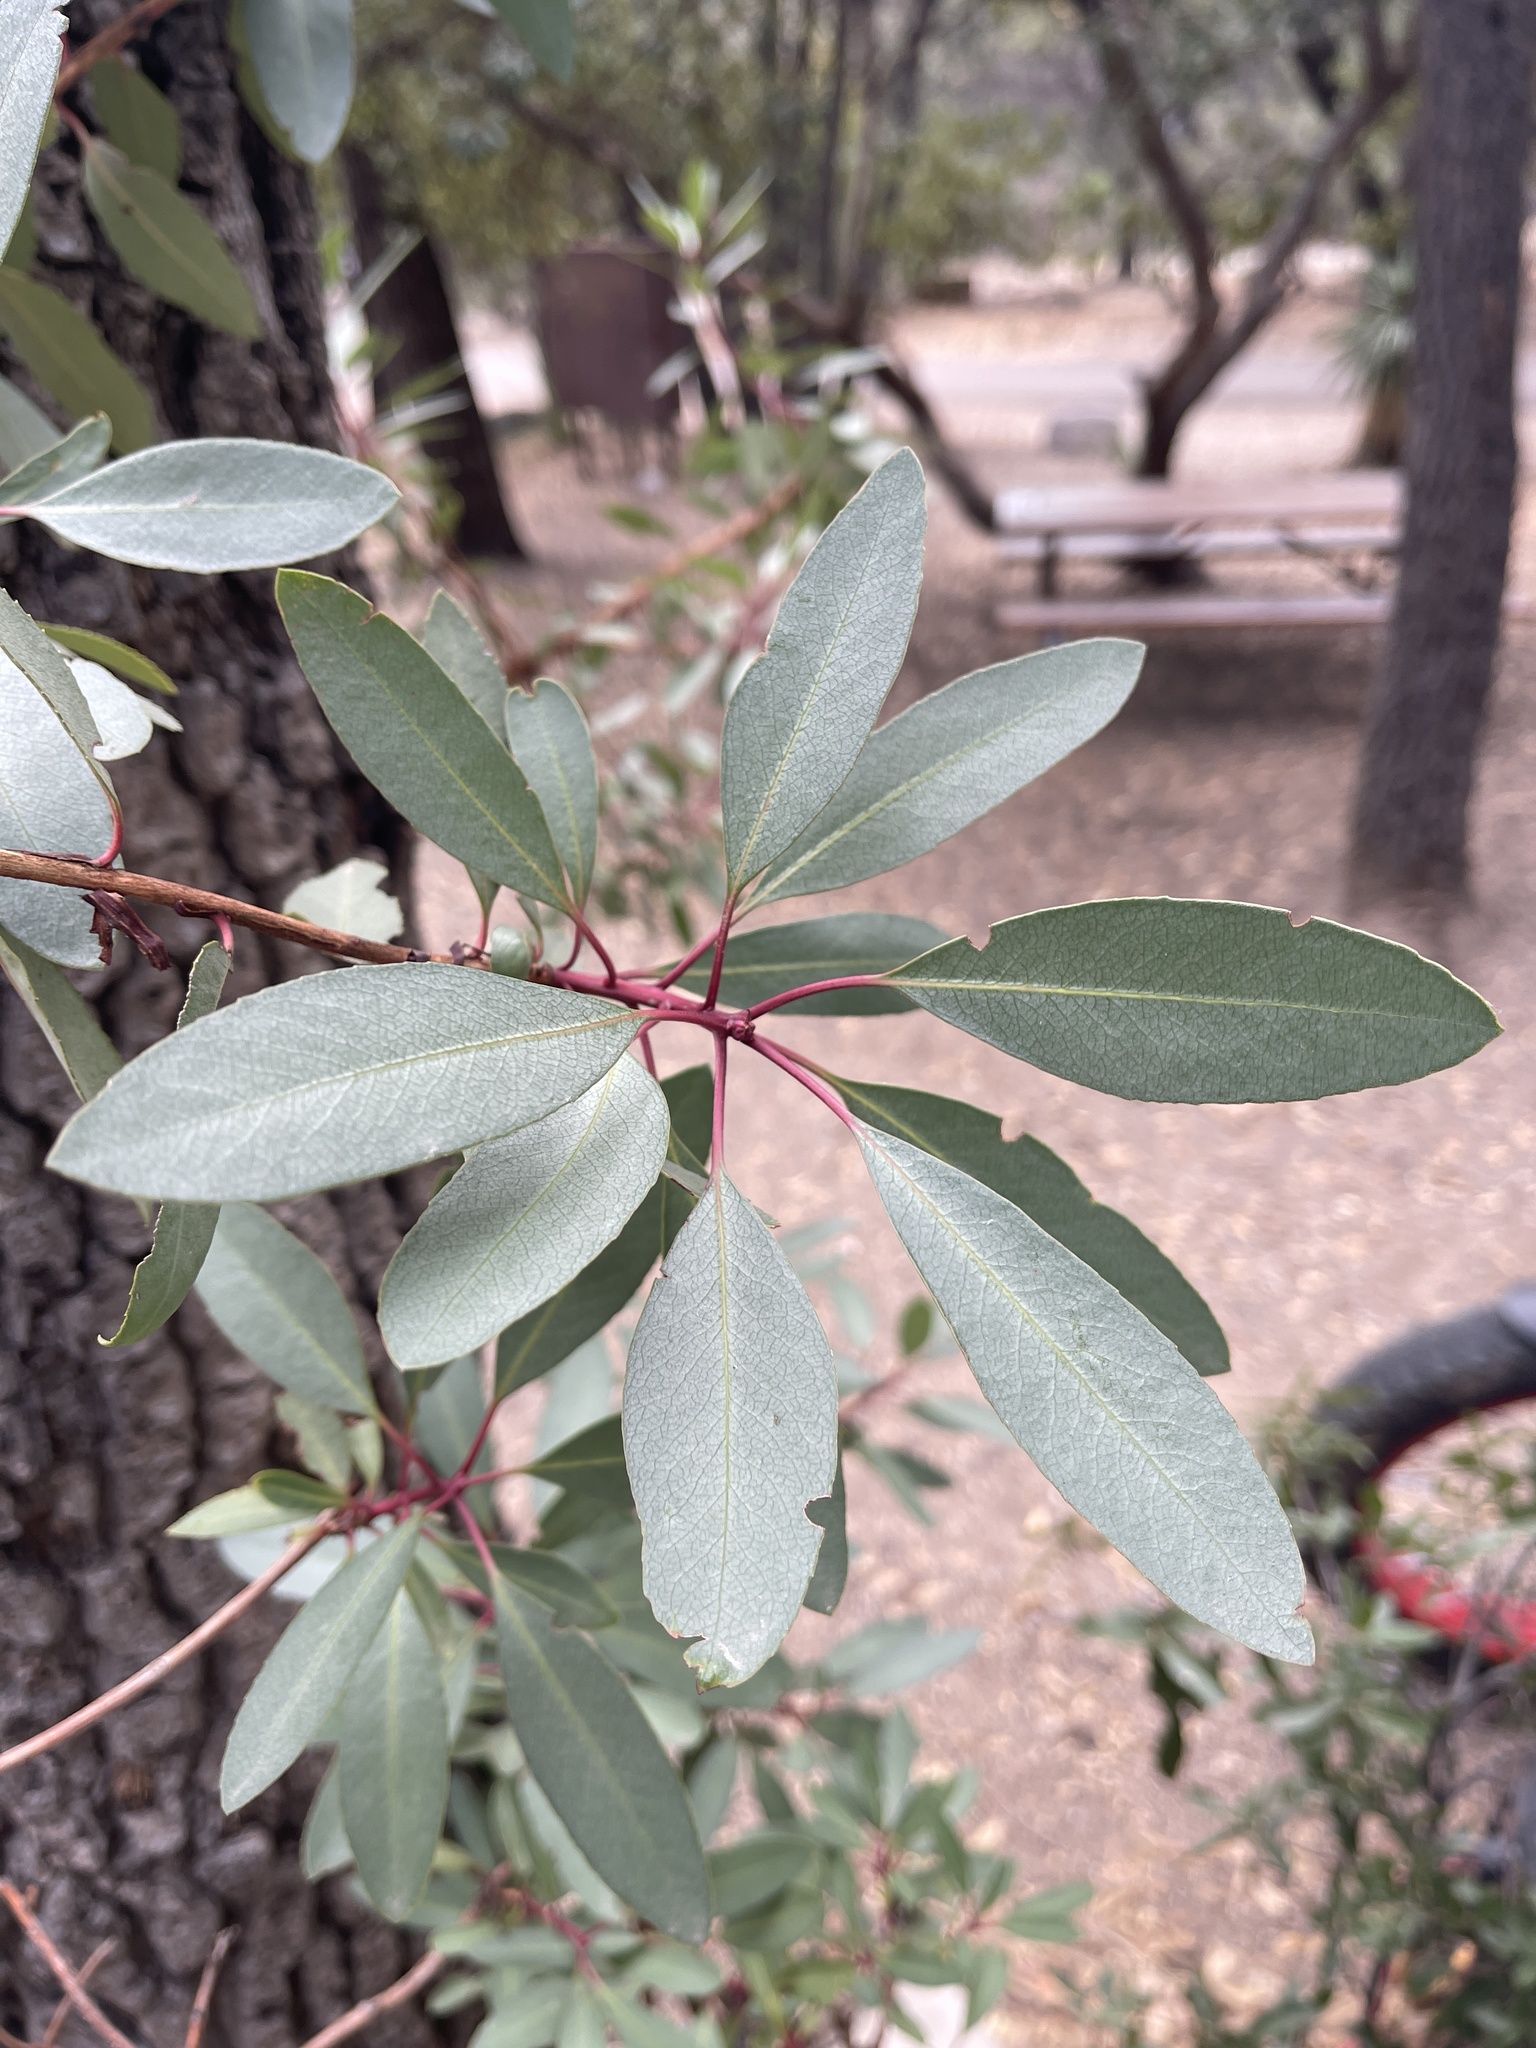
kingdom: Plantae
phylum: Tracheophyta
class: Magnoliopsida
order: Ericales
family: Ericaceae
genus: Arbutus
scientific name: Arbutus arizonica
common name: Arizona madrone
